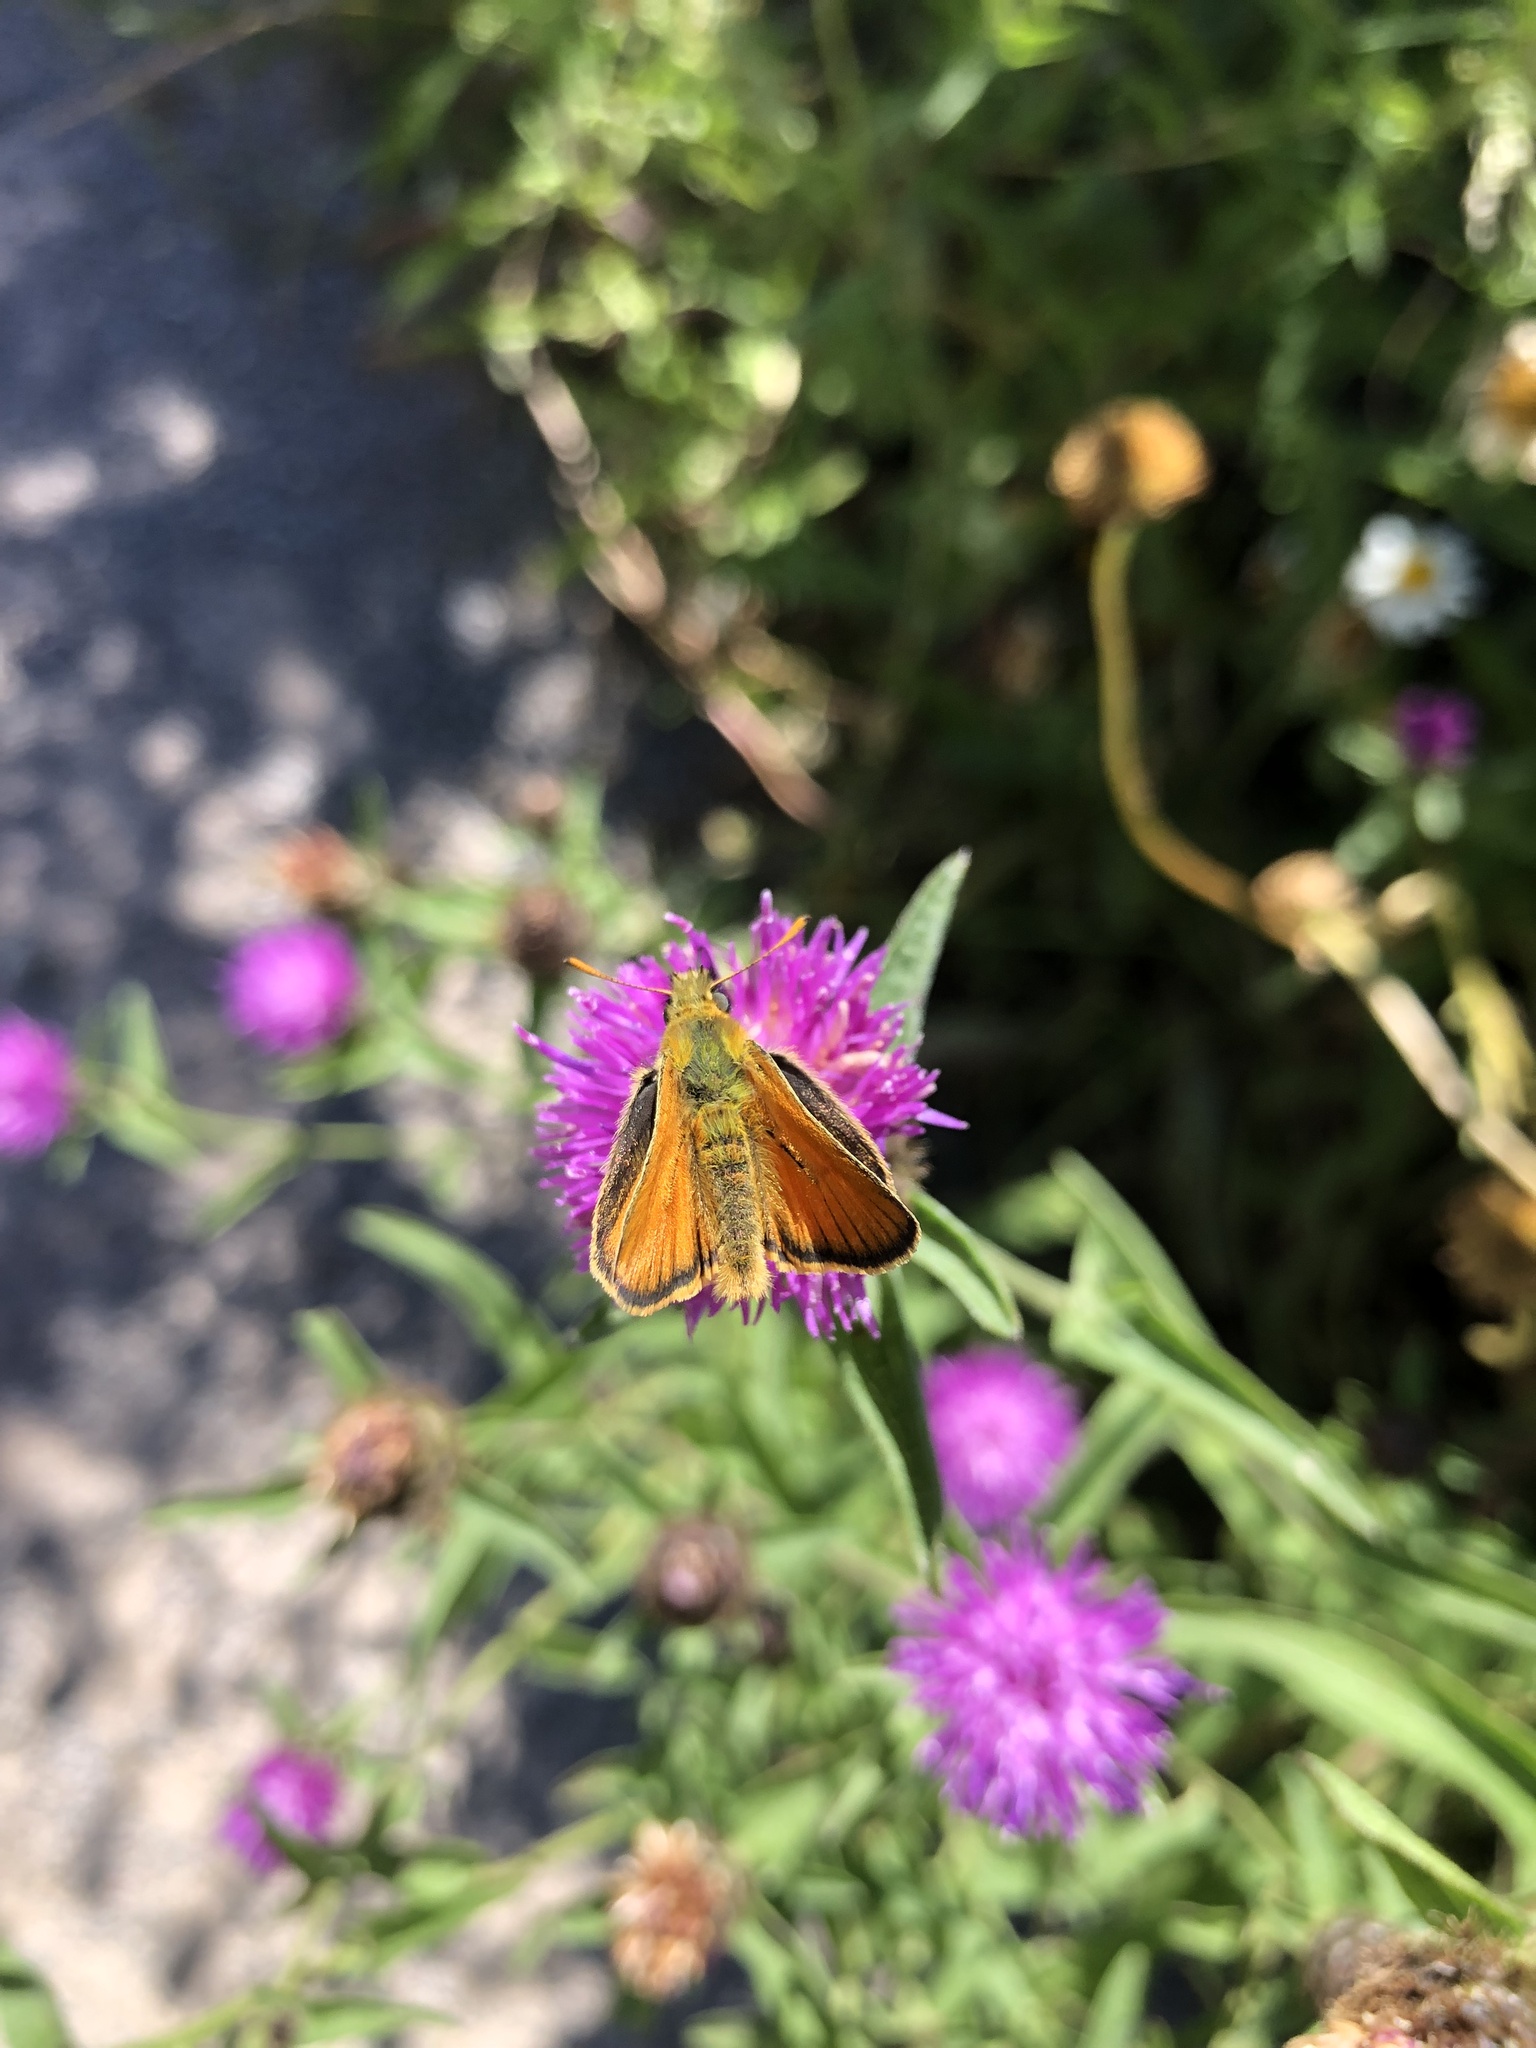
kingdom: Animalia
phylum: Arthropoda
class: Insecta
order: Lepidoptera
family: Hesperiidae
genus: Thymelicus
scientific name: Thymelicus sylvestris
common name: Small skipper
